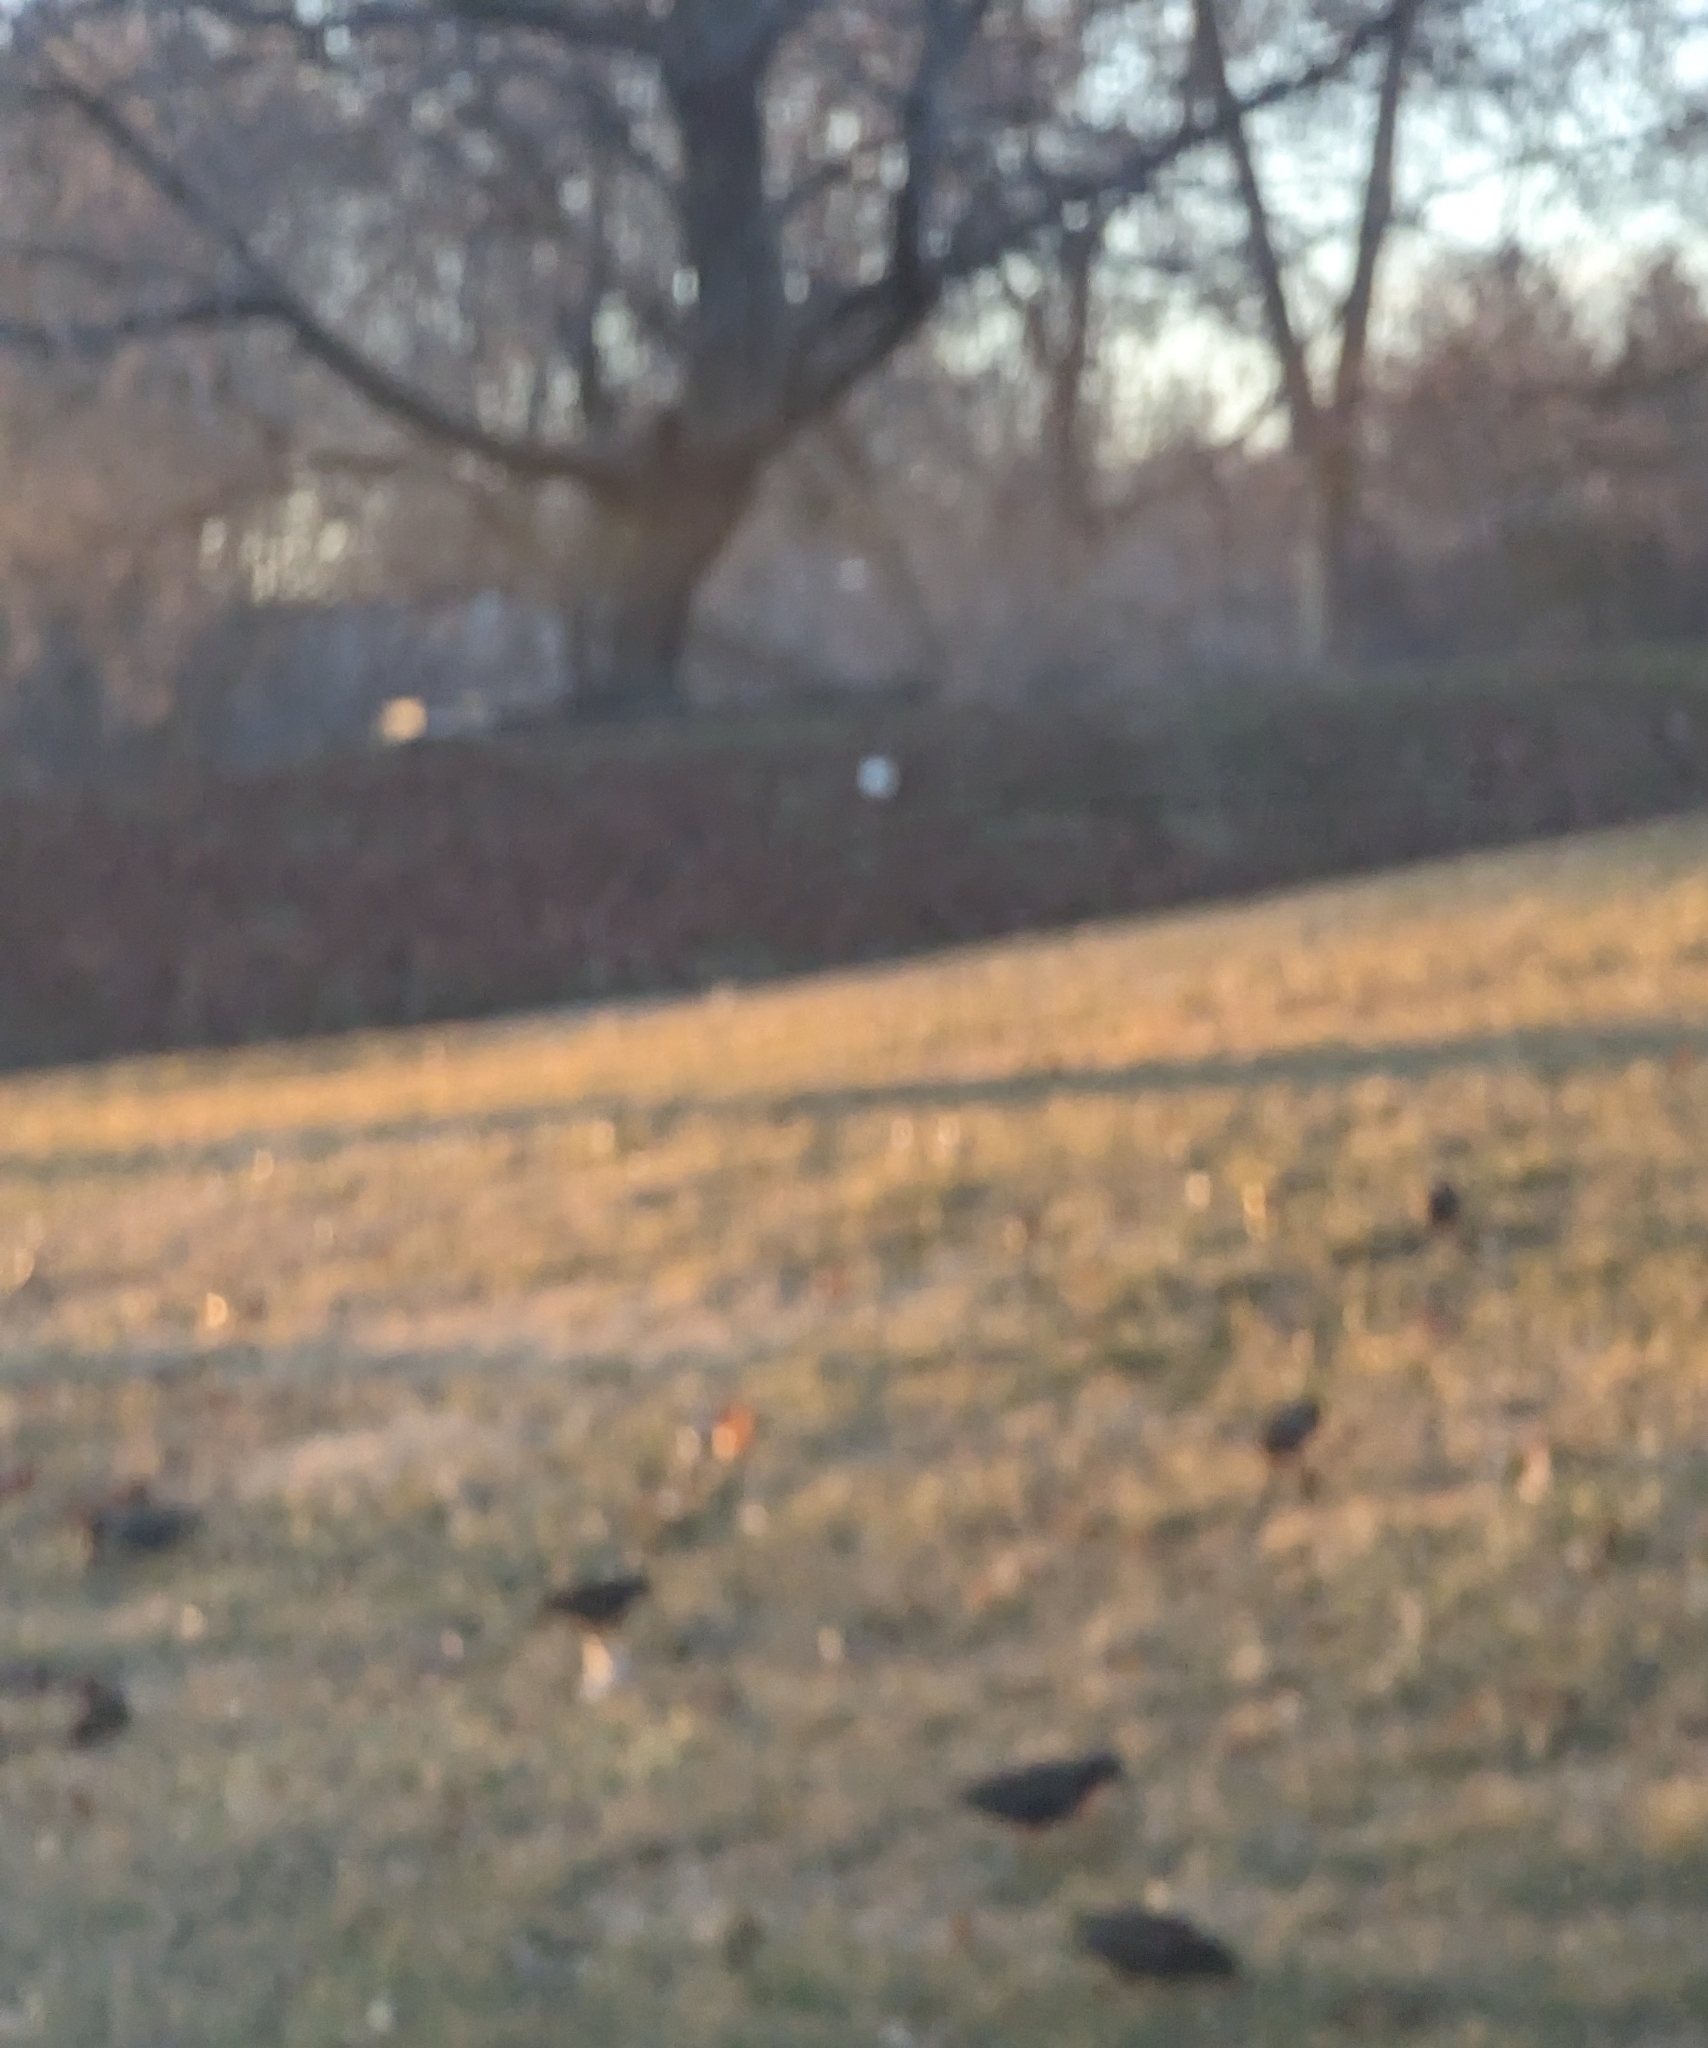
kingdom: Animalia
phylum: Chordata
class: Aves
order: Passeriformes
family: Sturnidae
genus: Sturnus
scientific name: Sturnus vulgaris
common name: Common starling
